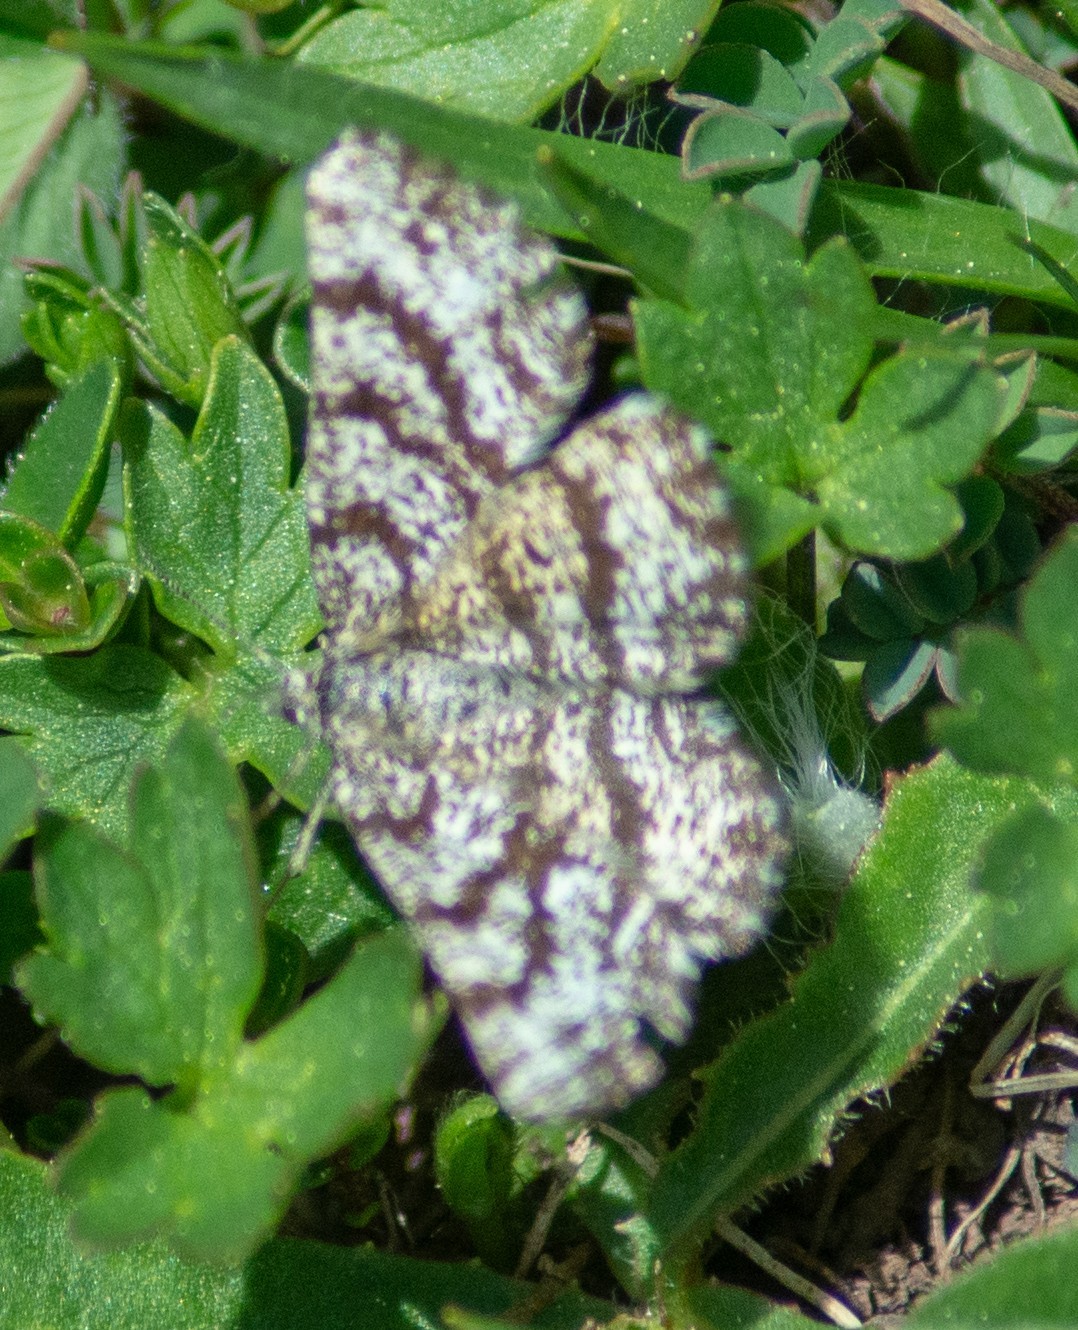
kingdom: Animalia
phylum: Arthropoda
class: Insecta
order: Lepidoptera
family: Geometridae
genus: Ematurga
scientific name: Ematurga atomaria
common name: Common heath
